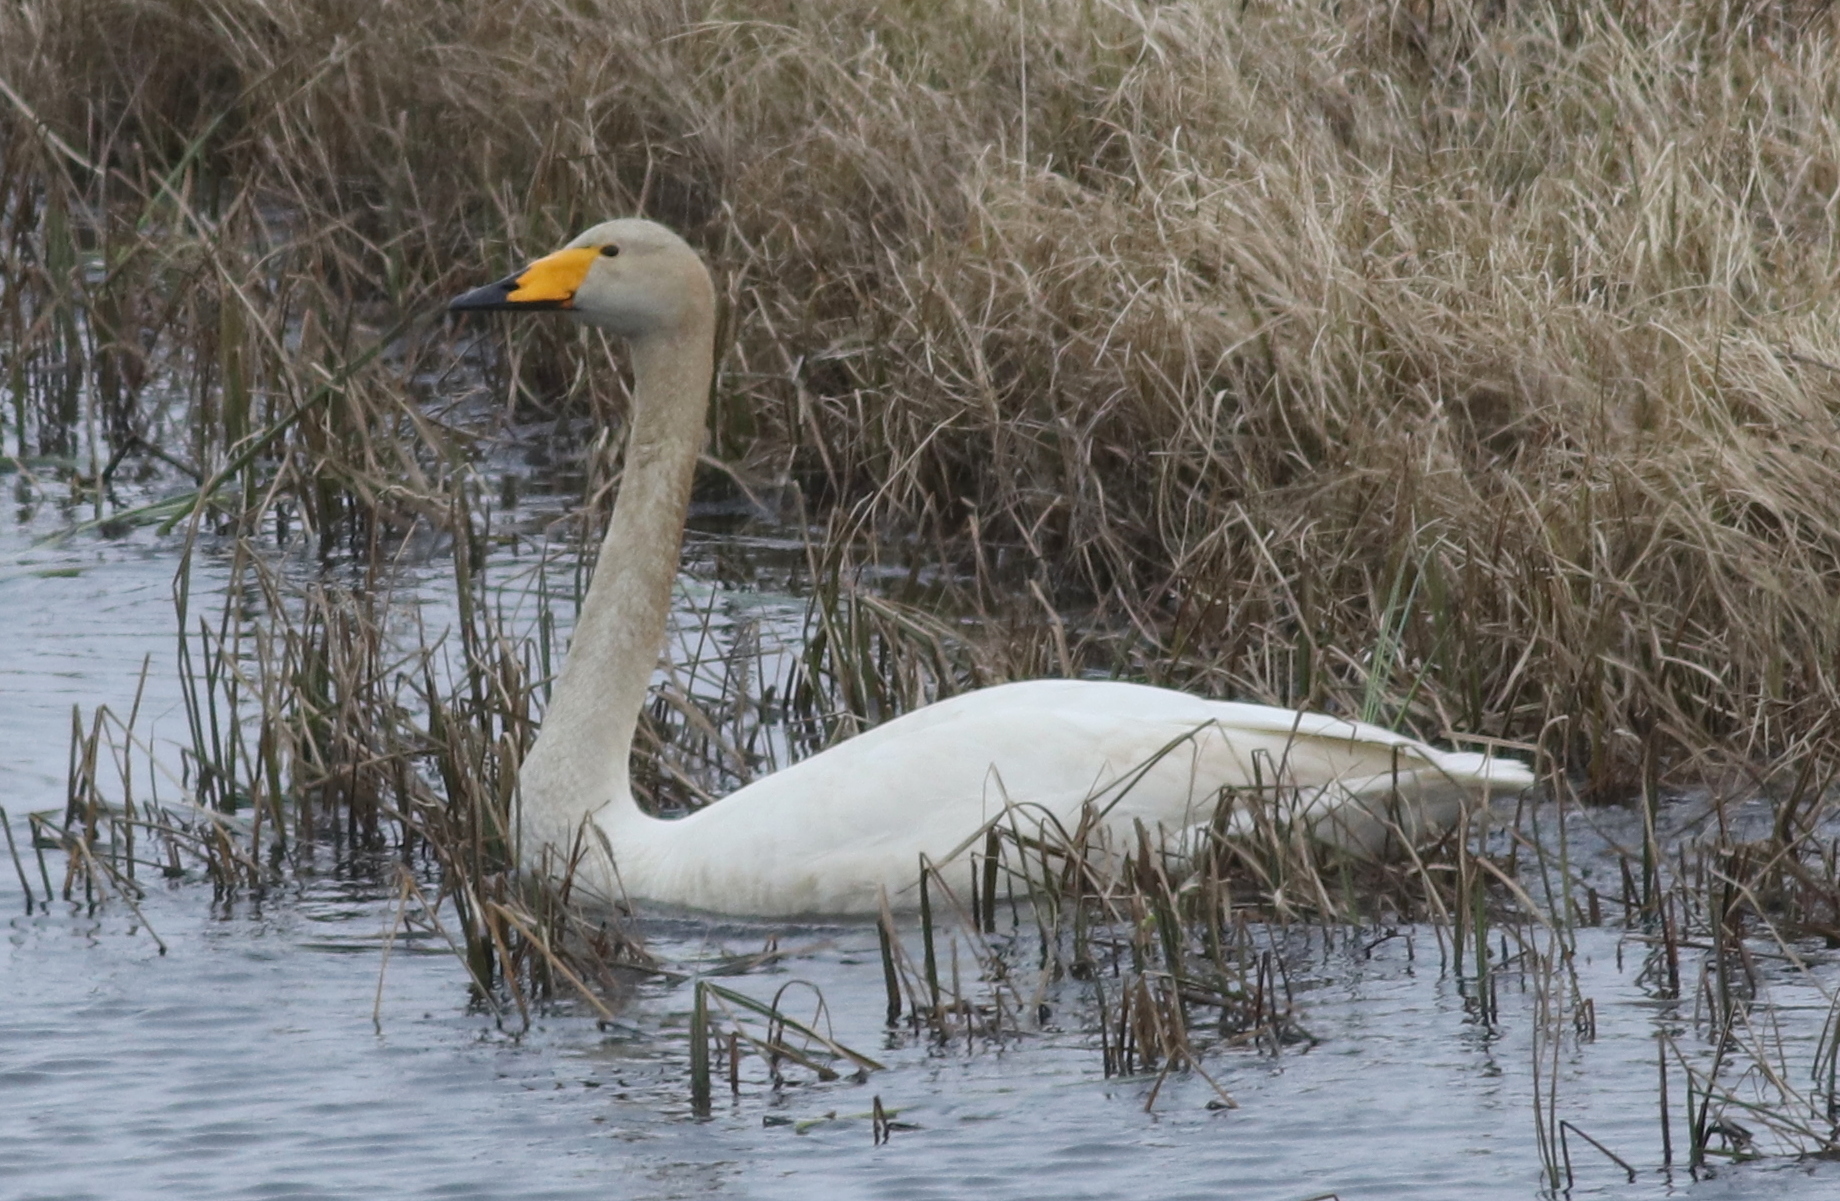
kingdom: Animalia
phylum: Chordata
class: Aves
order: Anseriformes
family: Anatidae
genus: Cygnus
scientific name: Cygnus cygnus
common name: Whooper swan
